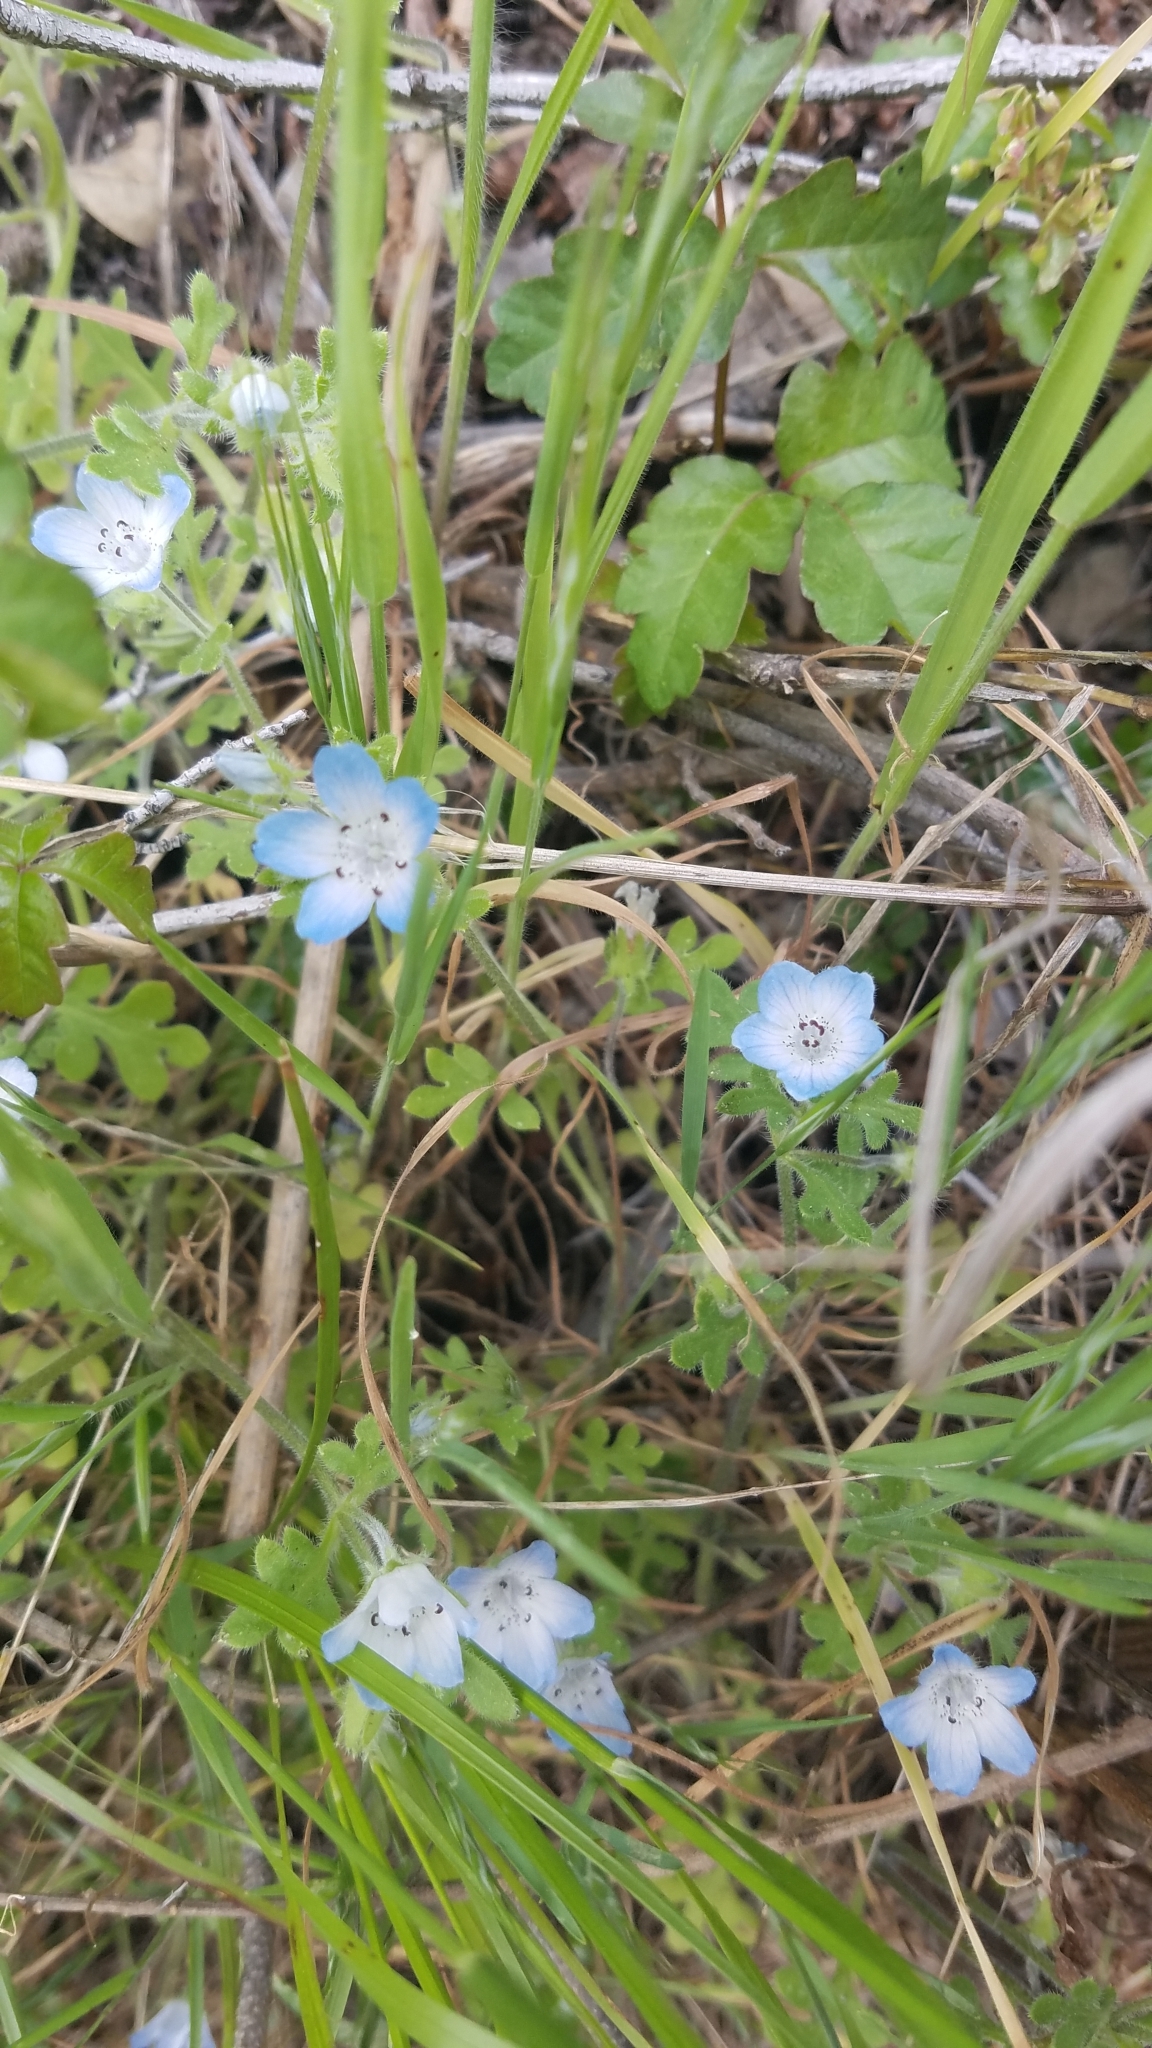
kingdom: Plantae
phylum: Tracheophyta
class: Magnoliopsida
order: Boraginales
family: Hydrophyllaceae
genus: Nemophila
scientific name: Nemophila menziesii
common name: Baby's-blue-eyes
